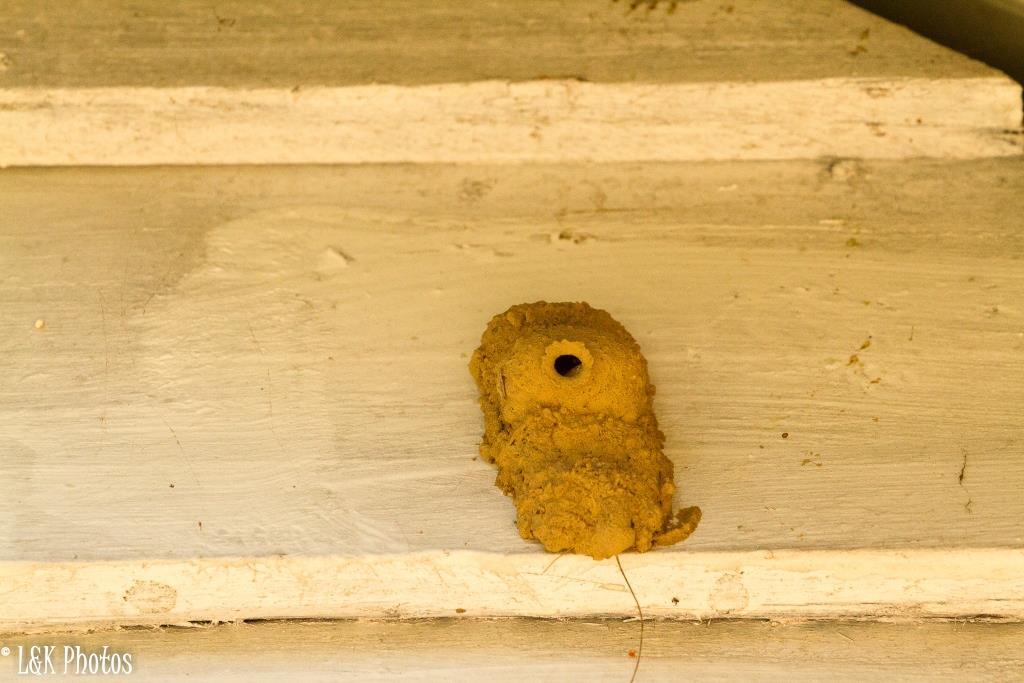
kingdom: Animalia
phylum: Arthropoda
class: Insecta
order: Hymenoptera
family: Eumenidae
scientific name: Eumenidae
